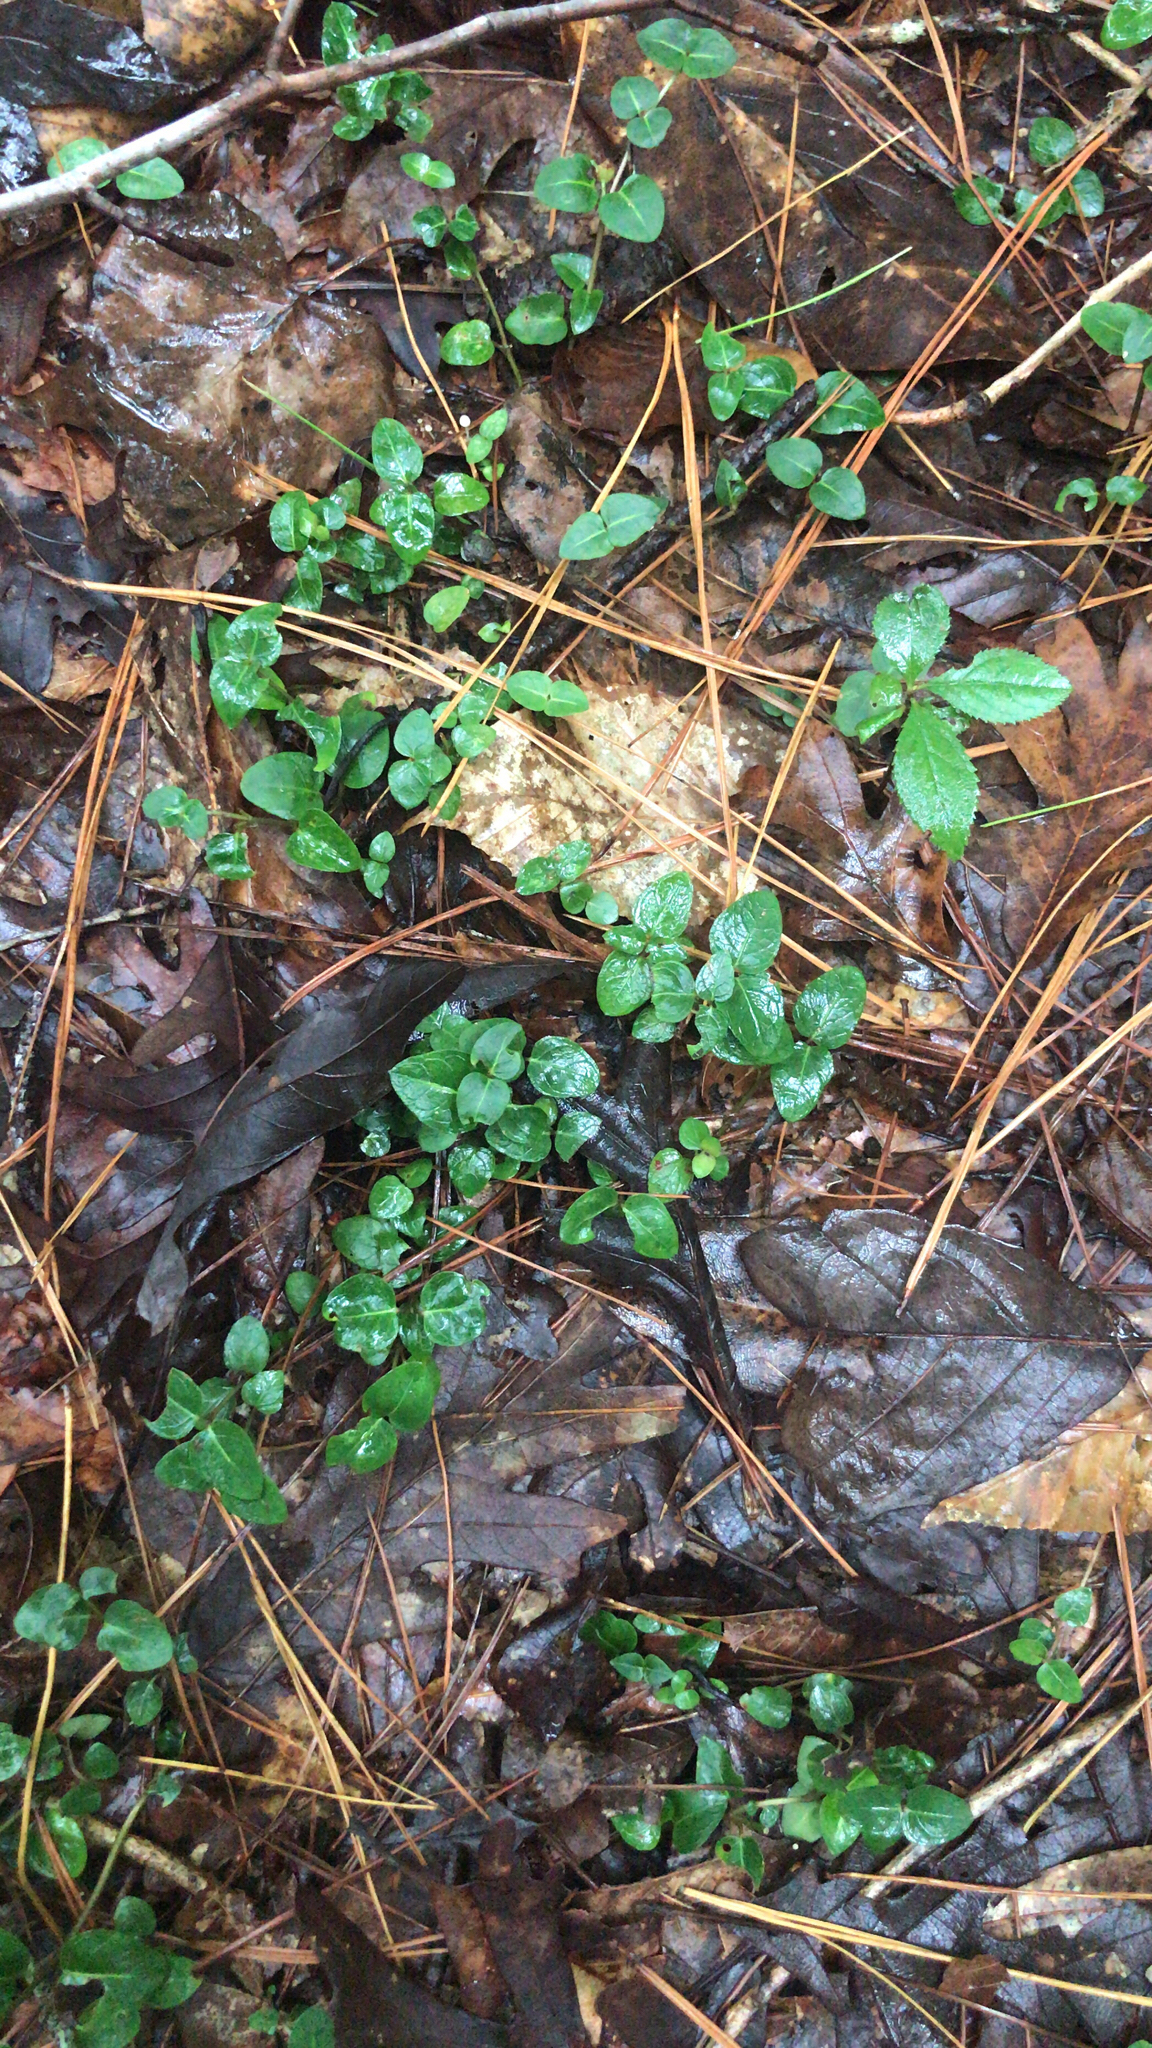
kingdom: Plantae
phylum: Tracheophyta
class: Magnoliopsida
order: Gentianales
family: Rubiaceae
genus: Mitchella
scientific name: Mitchella repens
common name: Partridge-berry
